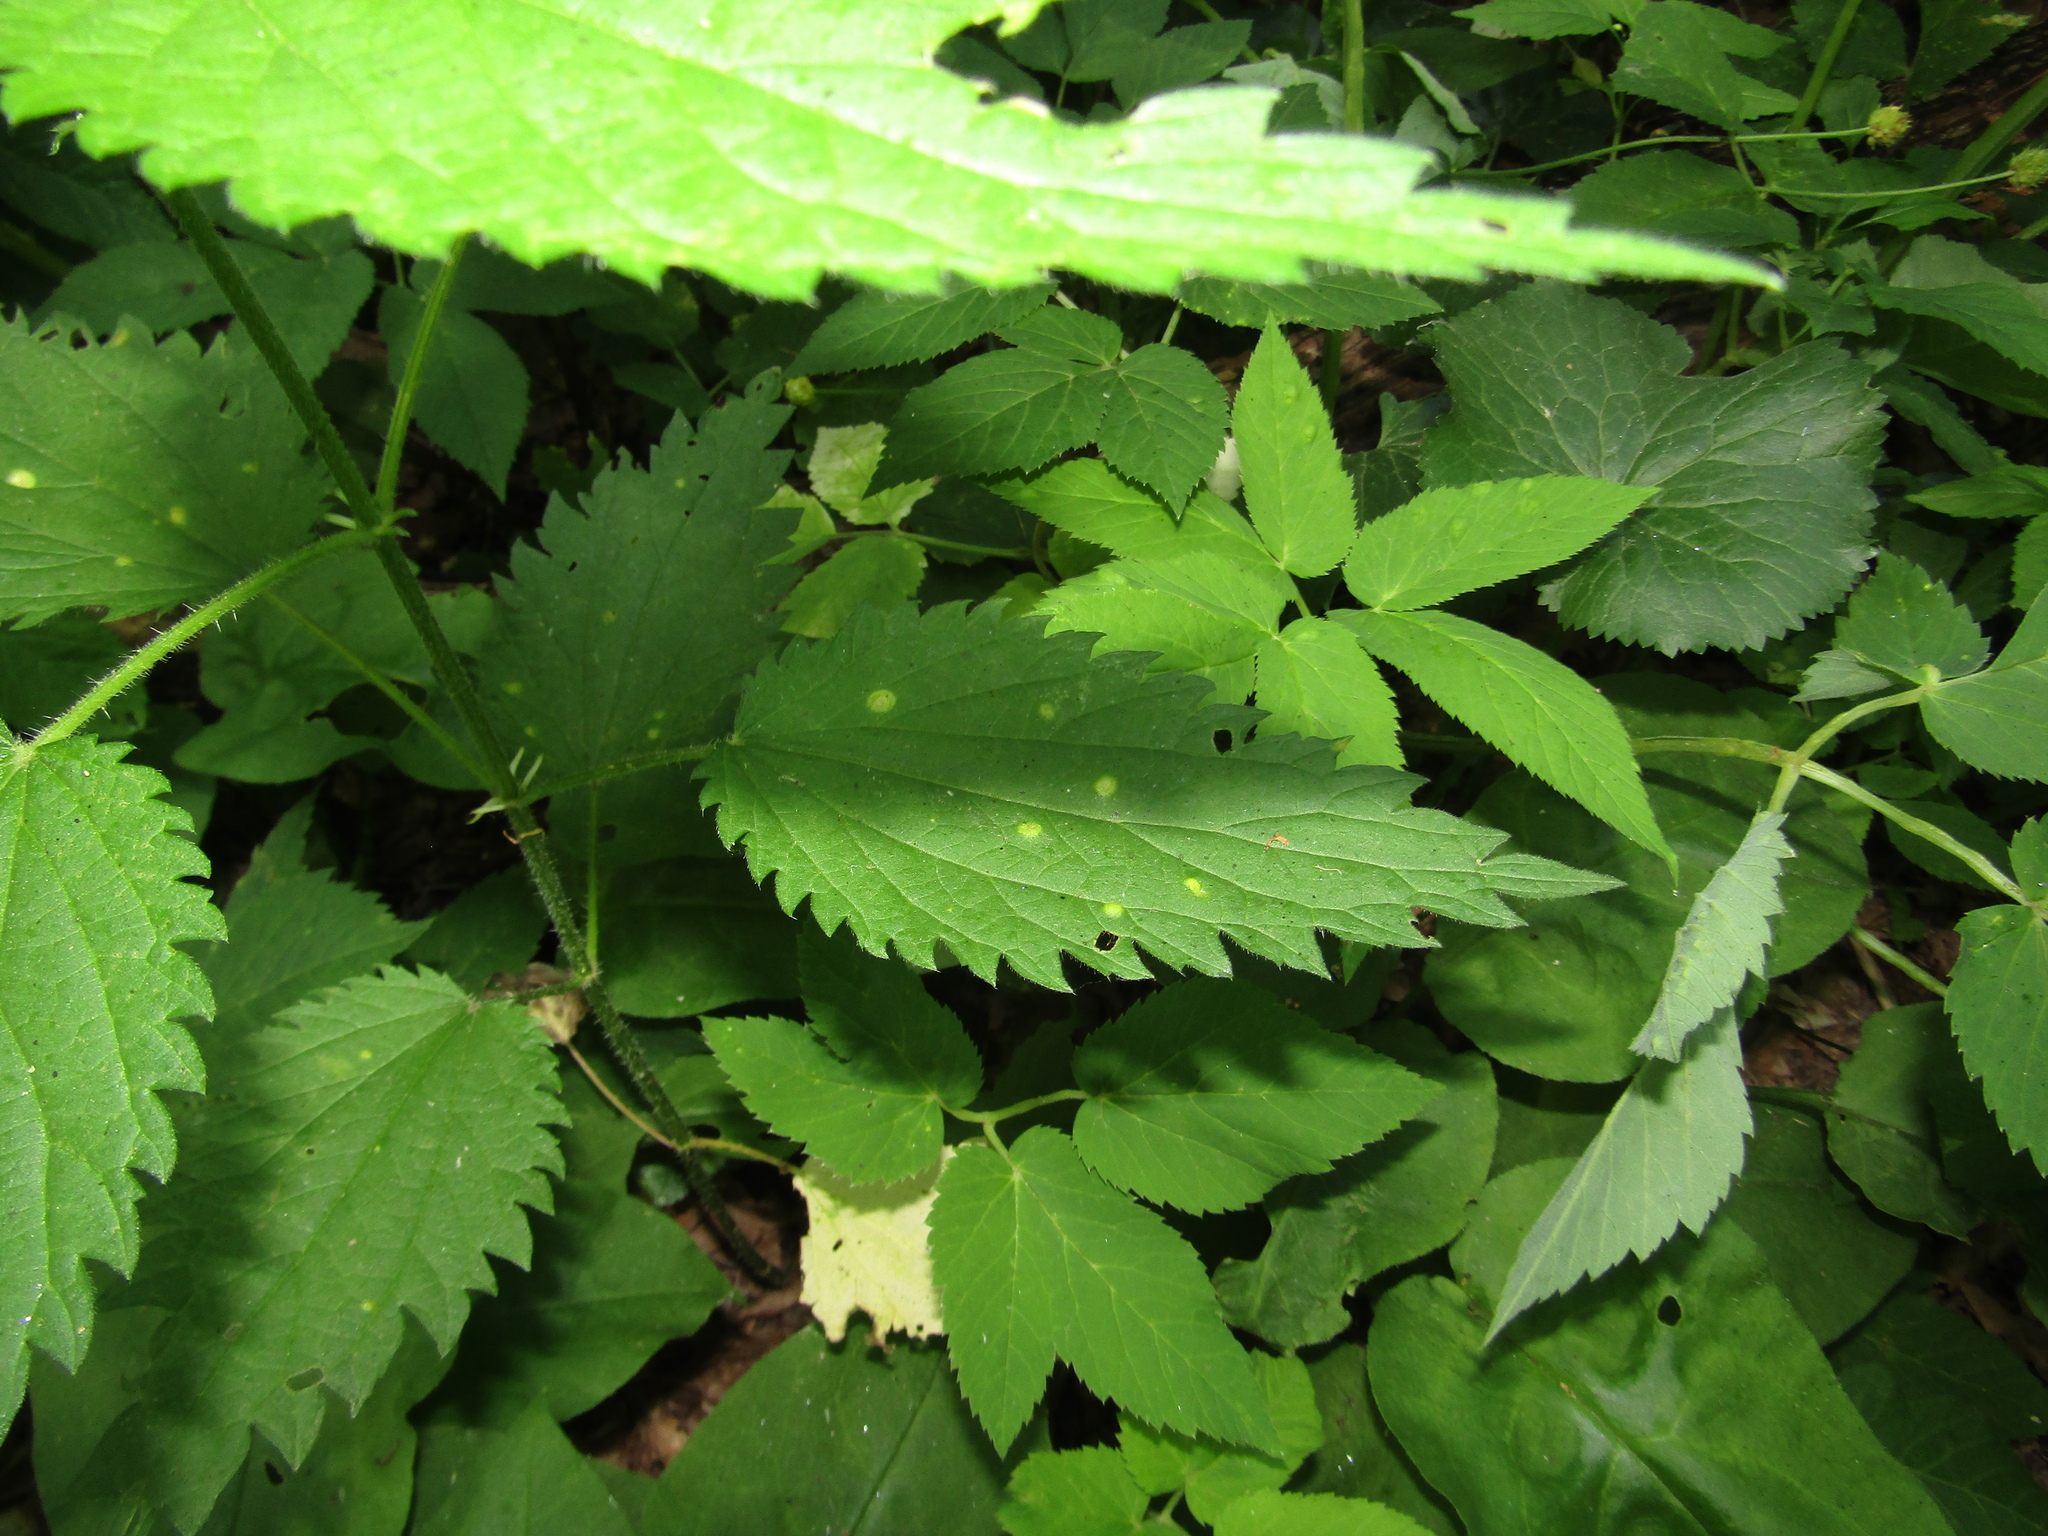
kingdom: Fungi
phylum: Basidiomycota
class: Pucciniomycetes
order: Pucciniales
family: Pucciniaceae
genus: Puccinia
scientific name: Puccinia urticata
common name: Nettle clustercup rust fungus
